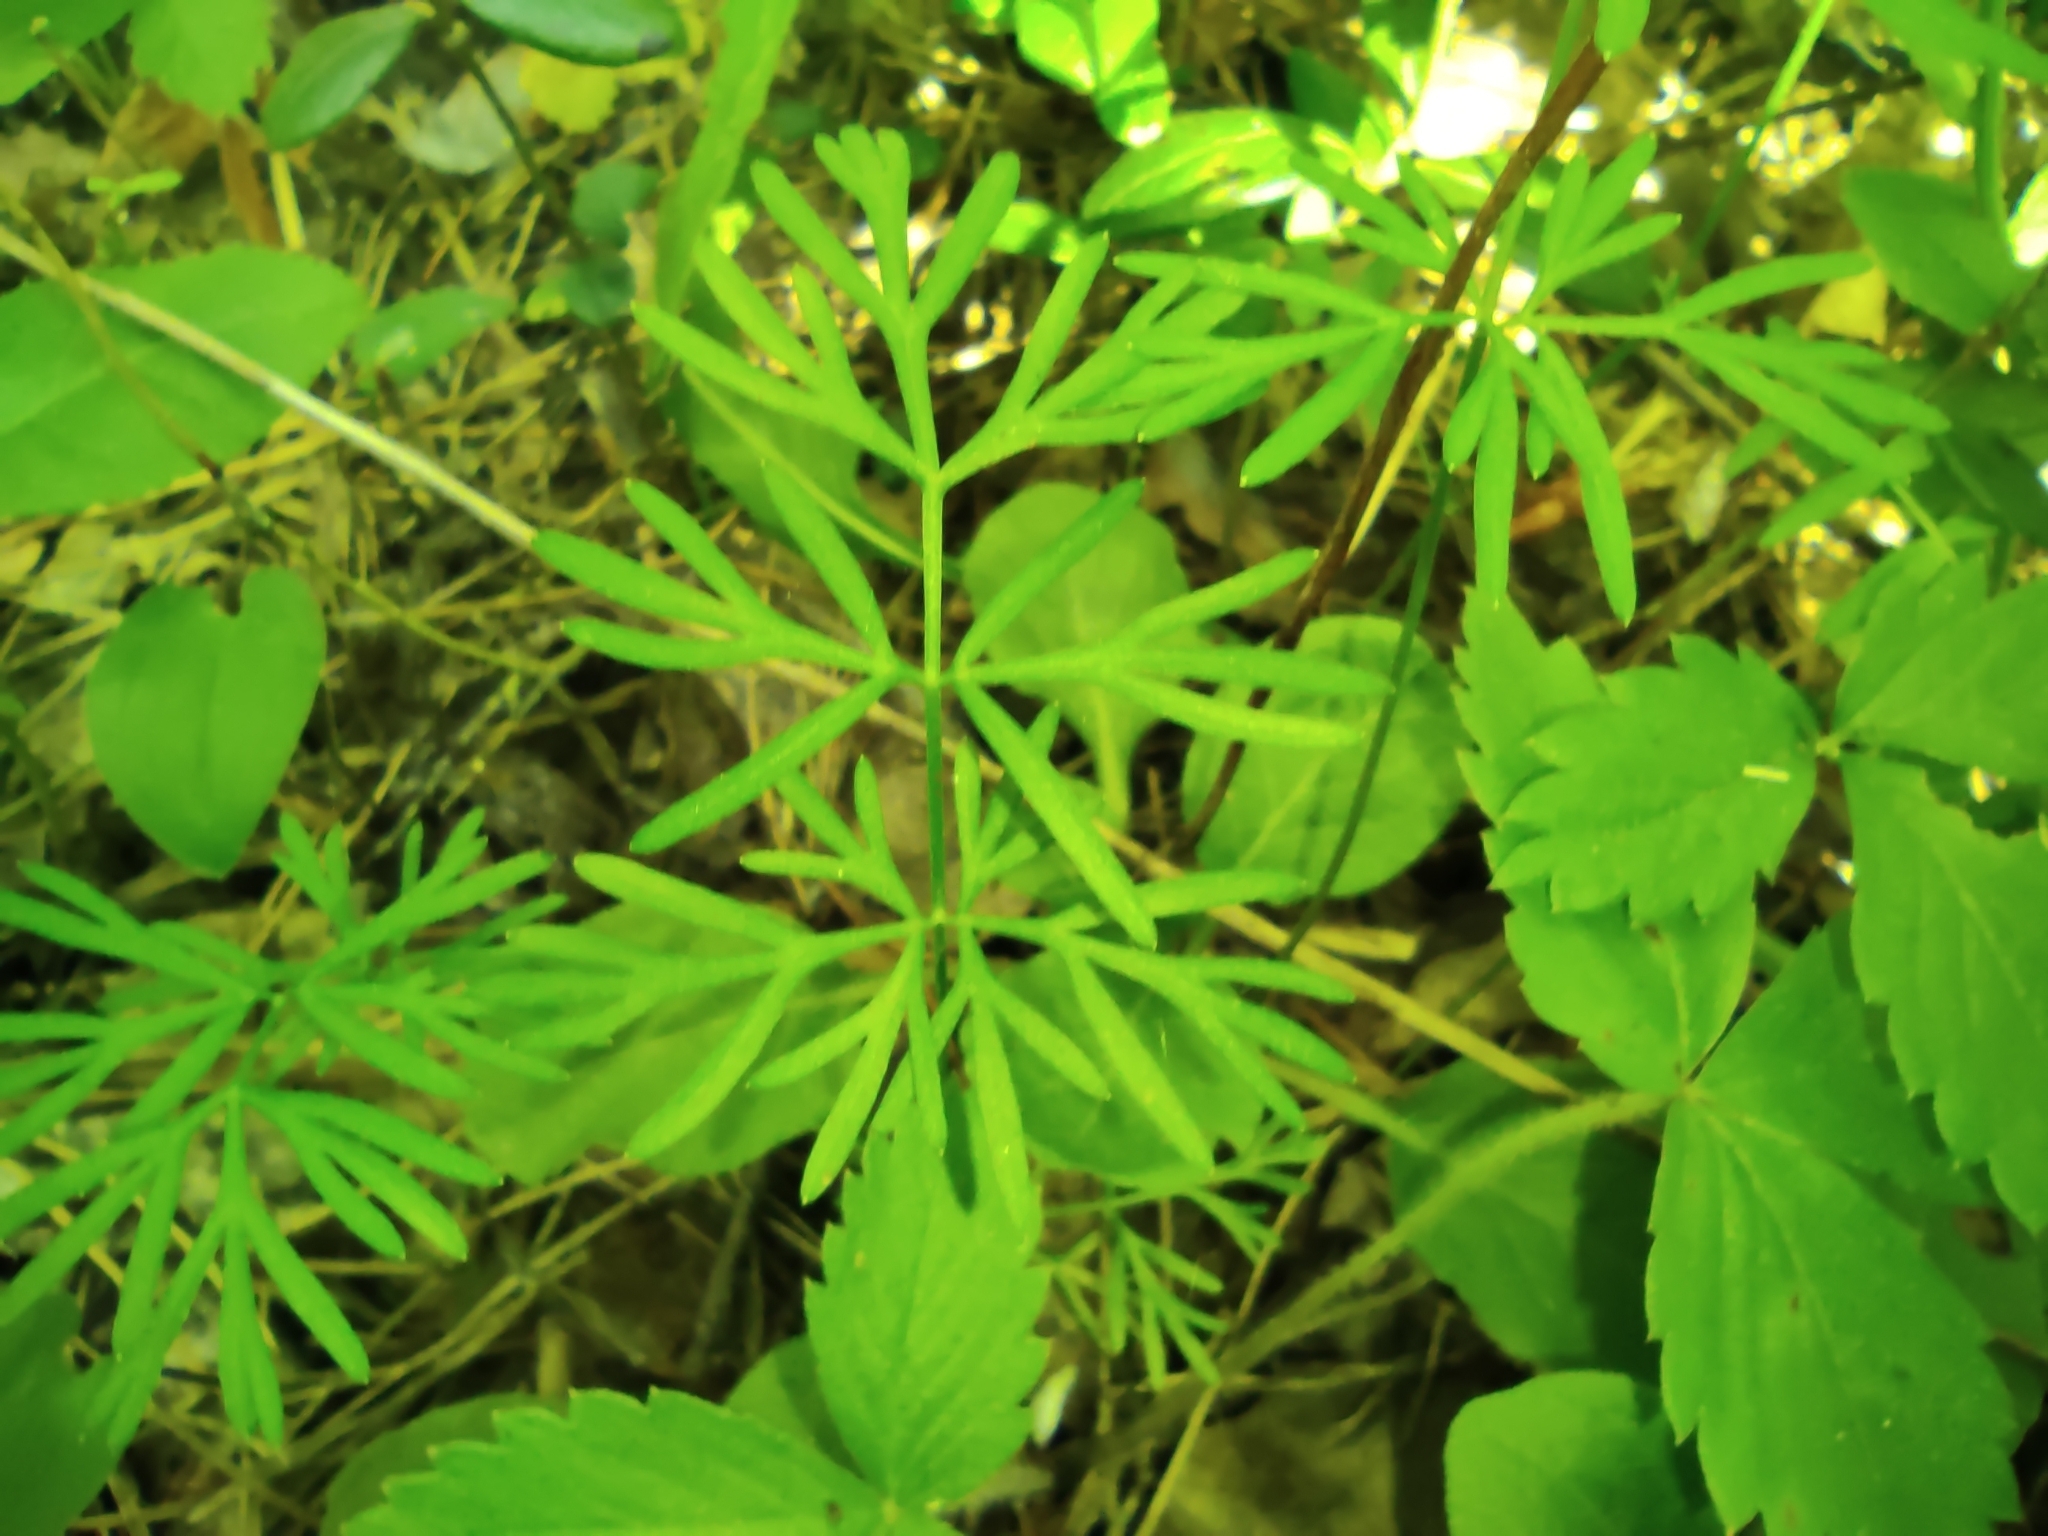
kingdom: Plantae
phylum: Tracheophyta
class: Magnoliopsida
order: Apiales
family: Apiaceae
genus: Kadenia
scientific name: Kadenia dubia
